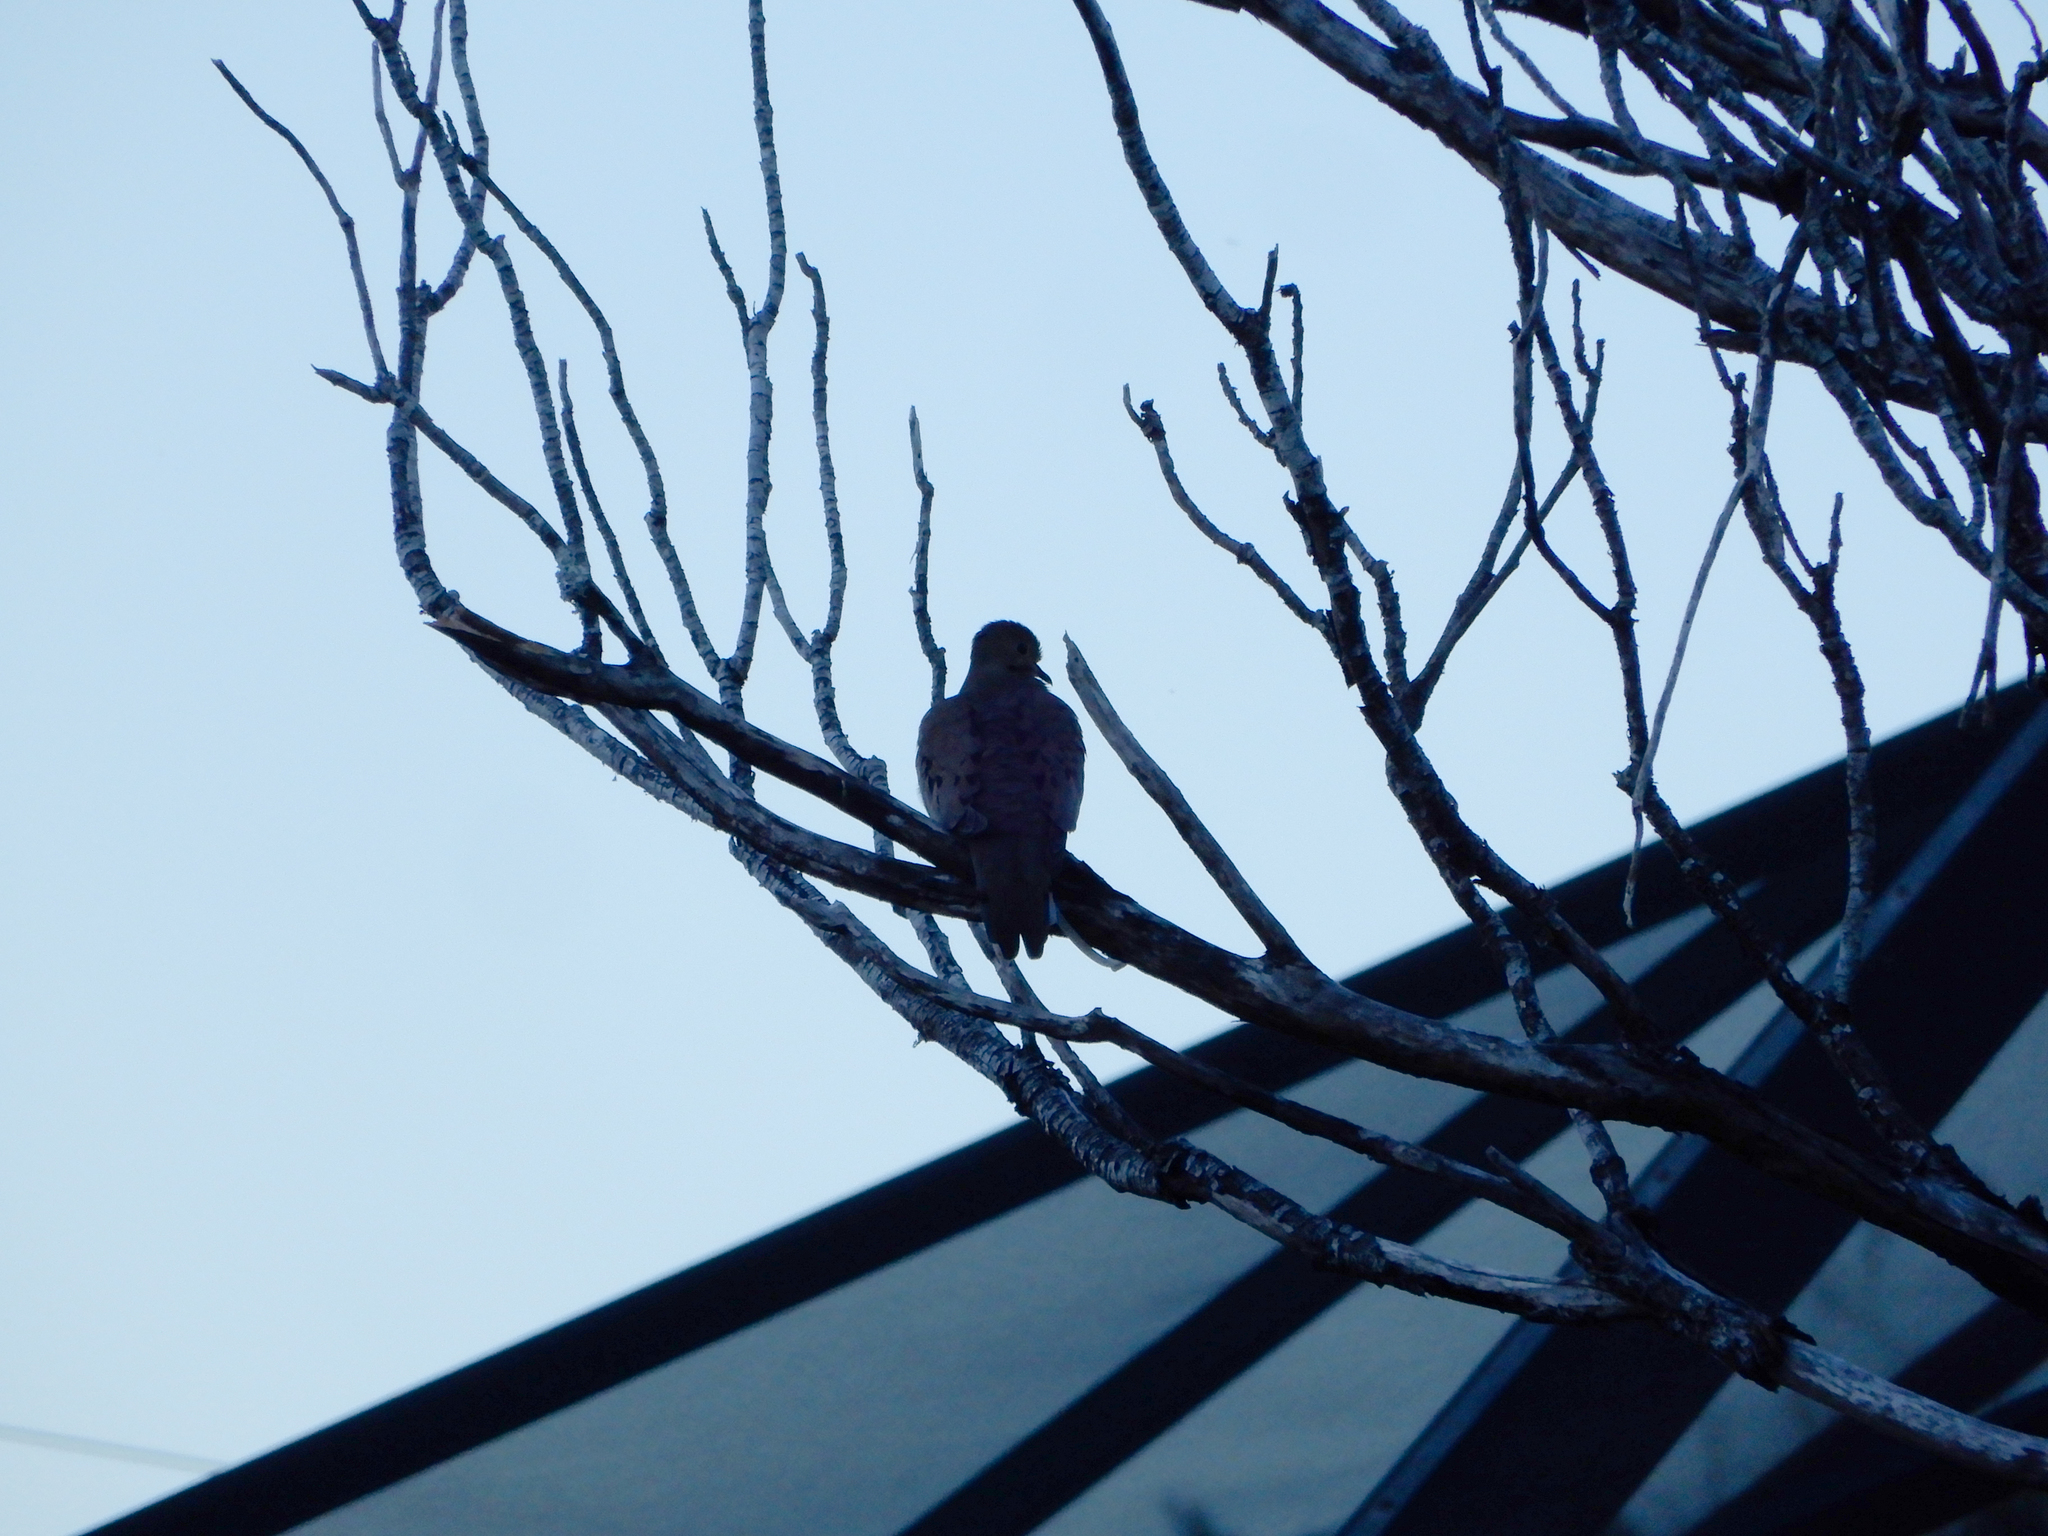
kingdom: Animalia
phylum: Chordata
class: Aves
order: Columbiformes
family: Columbidae
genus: Zenaida
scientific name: Zenaida macroura
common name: Mourning dove
